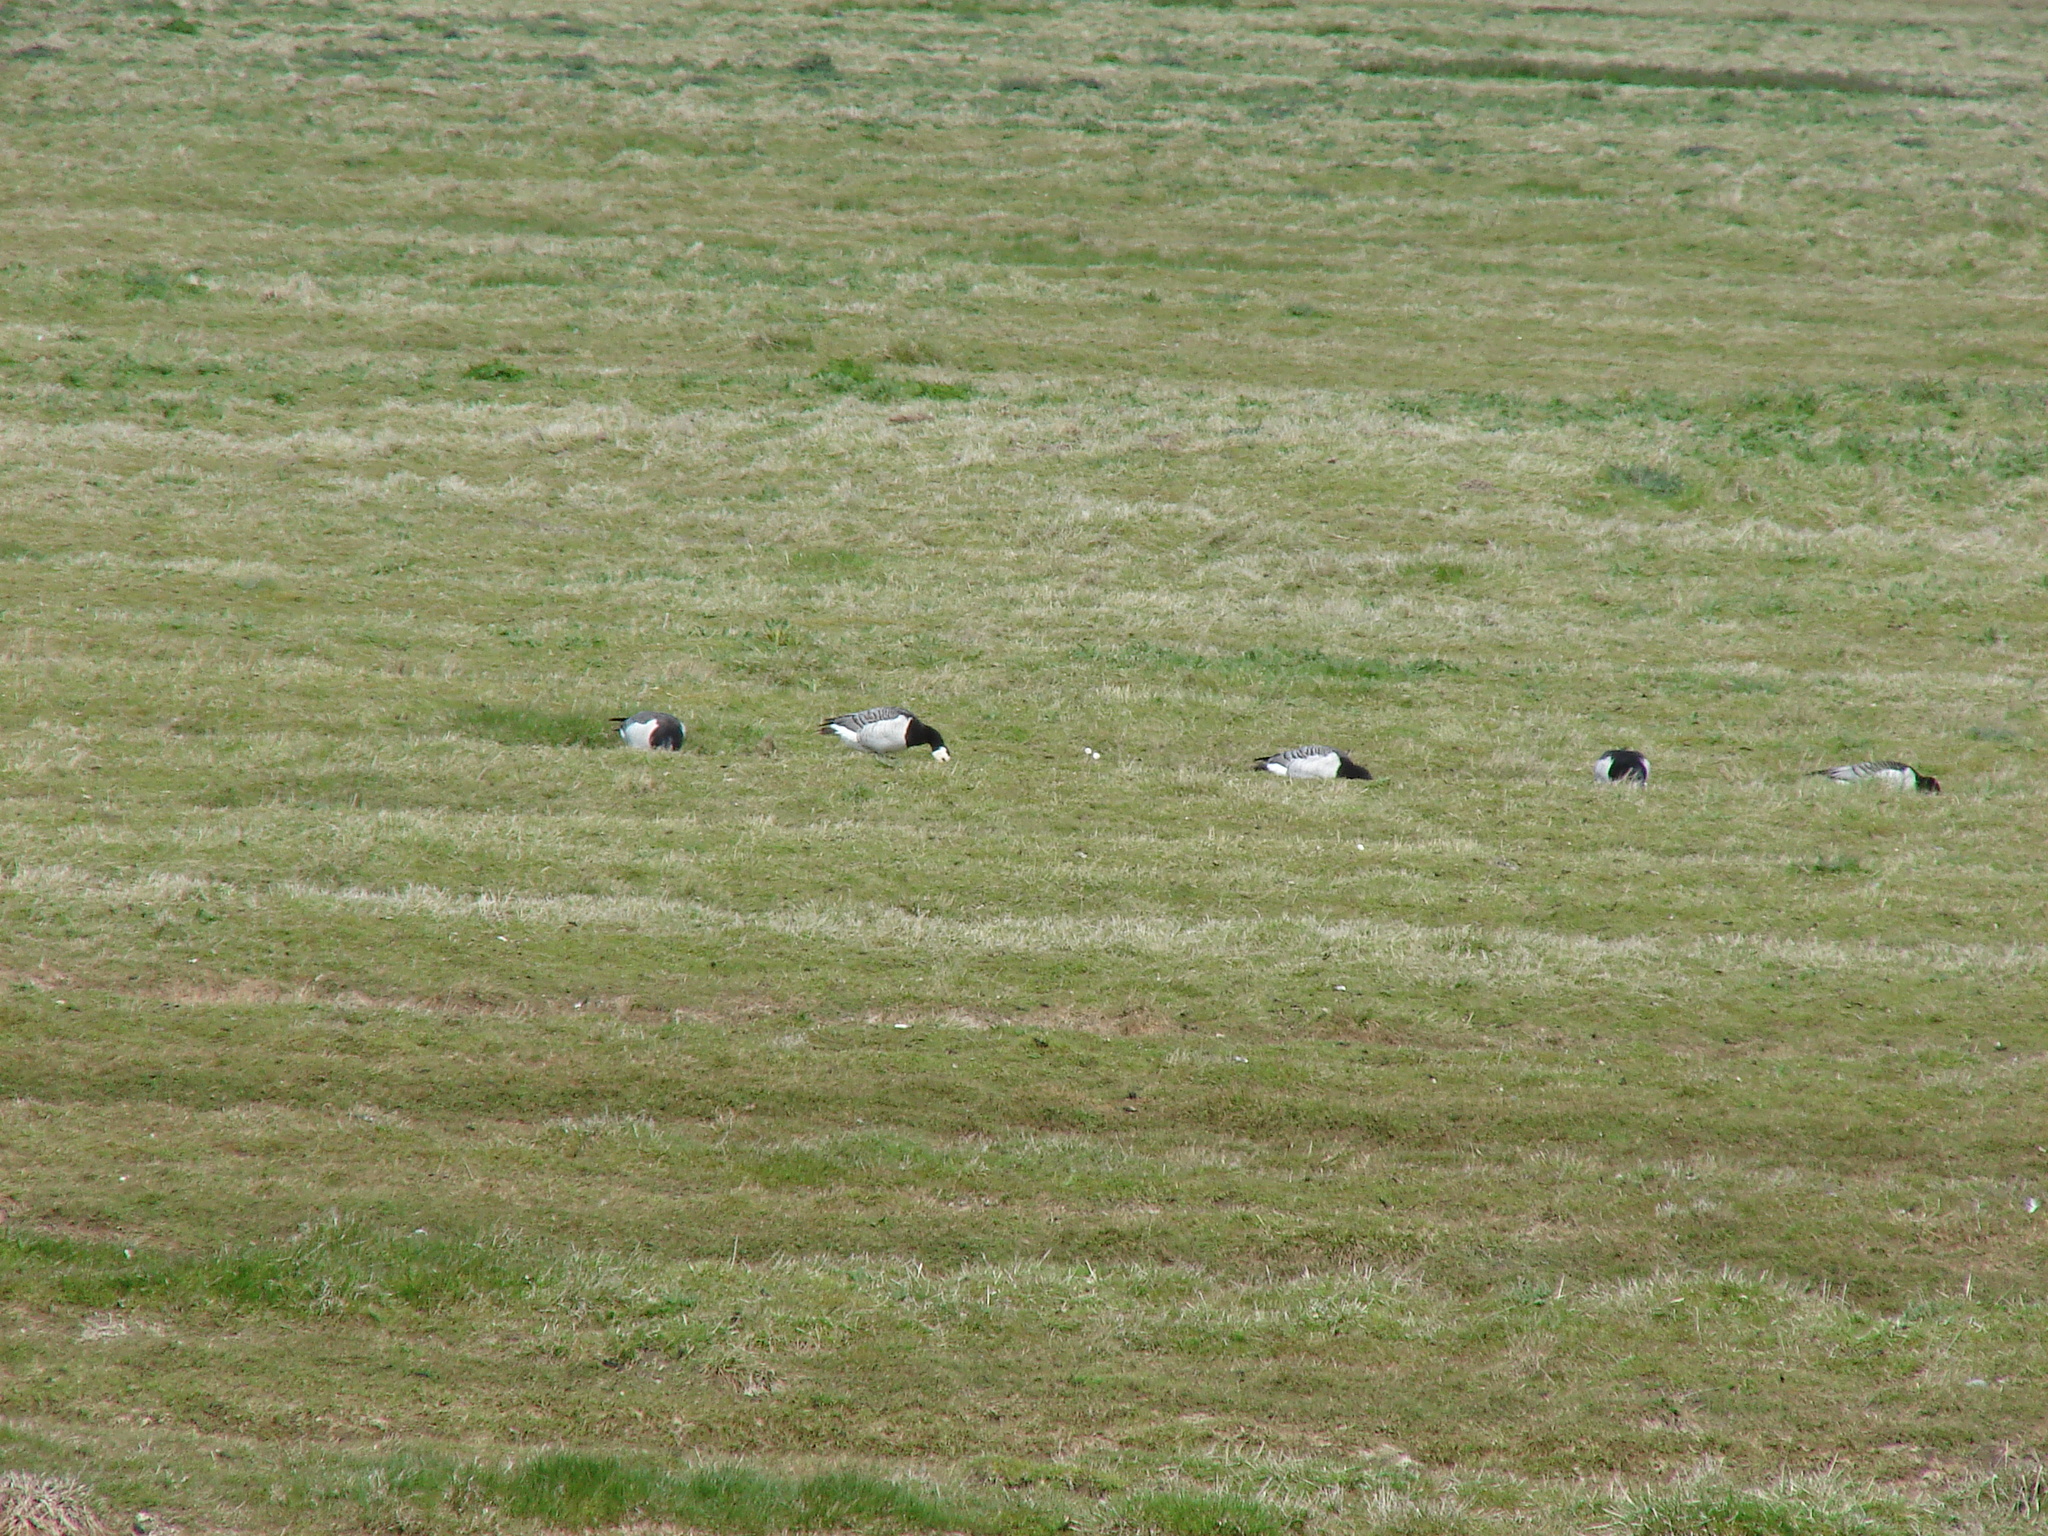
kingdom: Animalia
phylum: Chordata
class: Aves
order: Anseriformes
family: Anatidae
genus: Branta
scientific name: Branta leucopsis
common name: Barnacle goose
